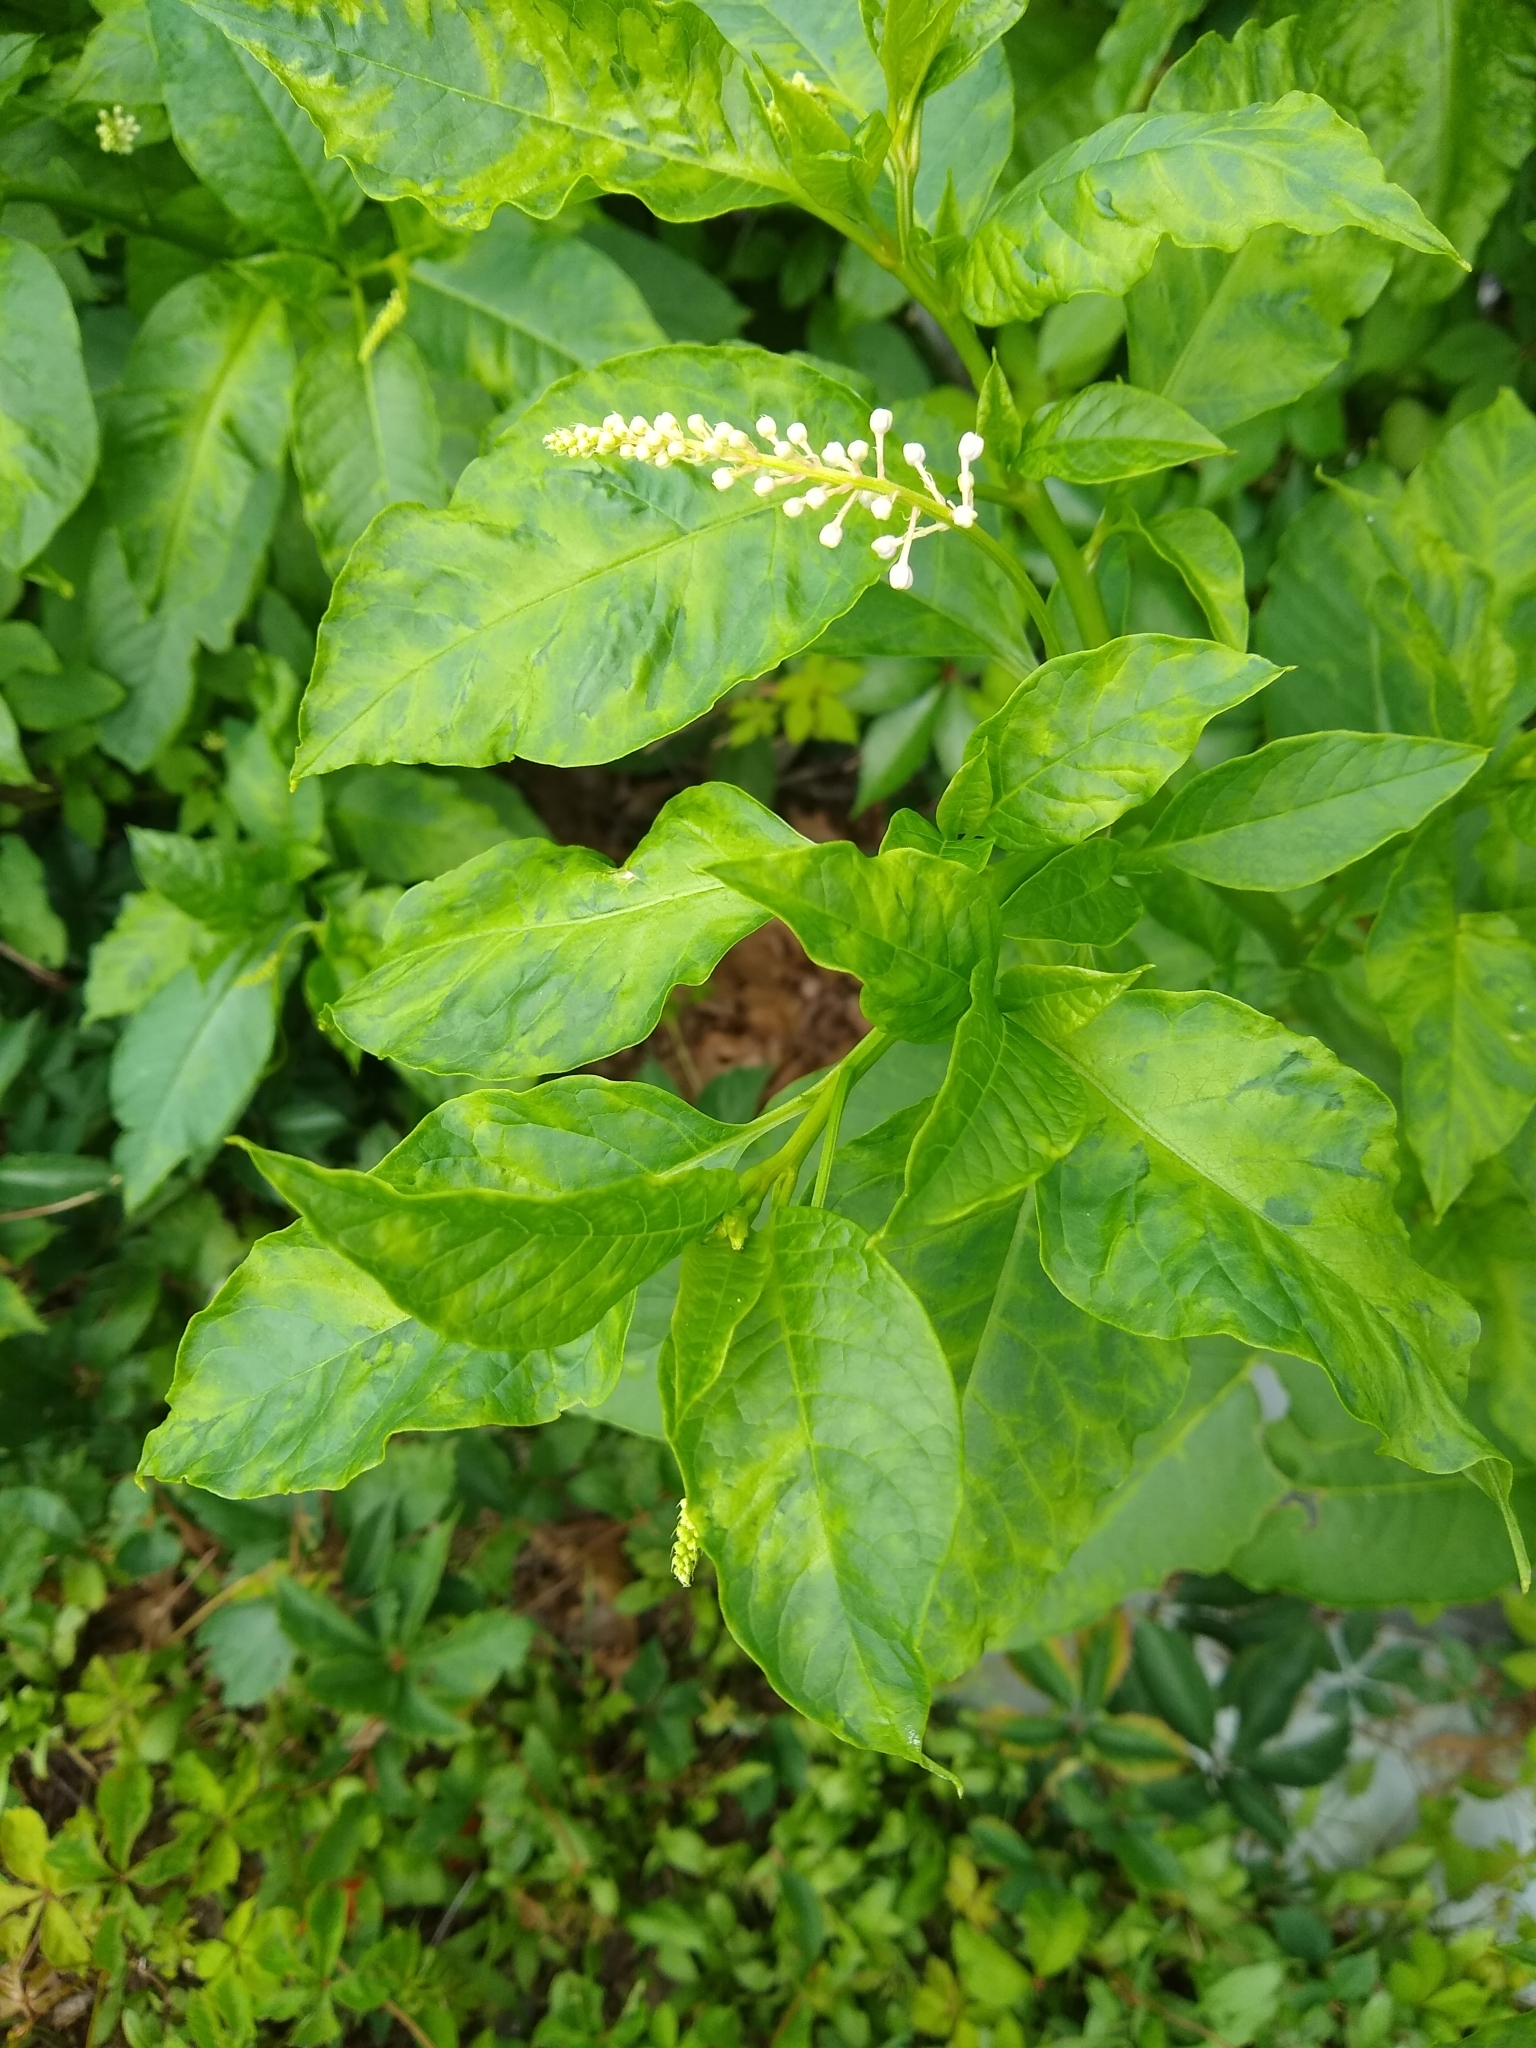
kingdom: Viruses
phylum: Pisuviricota
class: Stelpaviricetes
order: Patatavirales
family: Potyviridae
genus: Potyvirus
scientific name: Potyvirus Pokeweed mosaic virus
